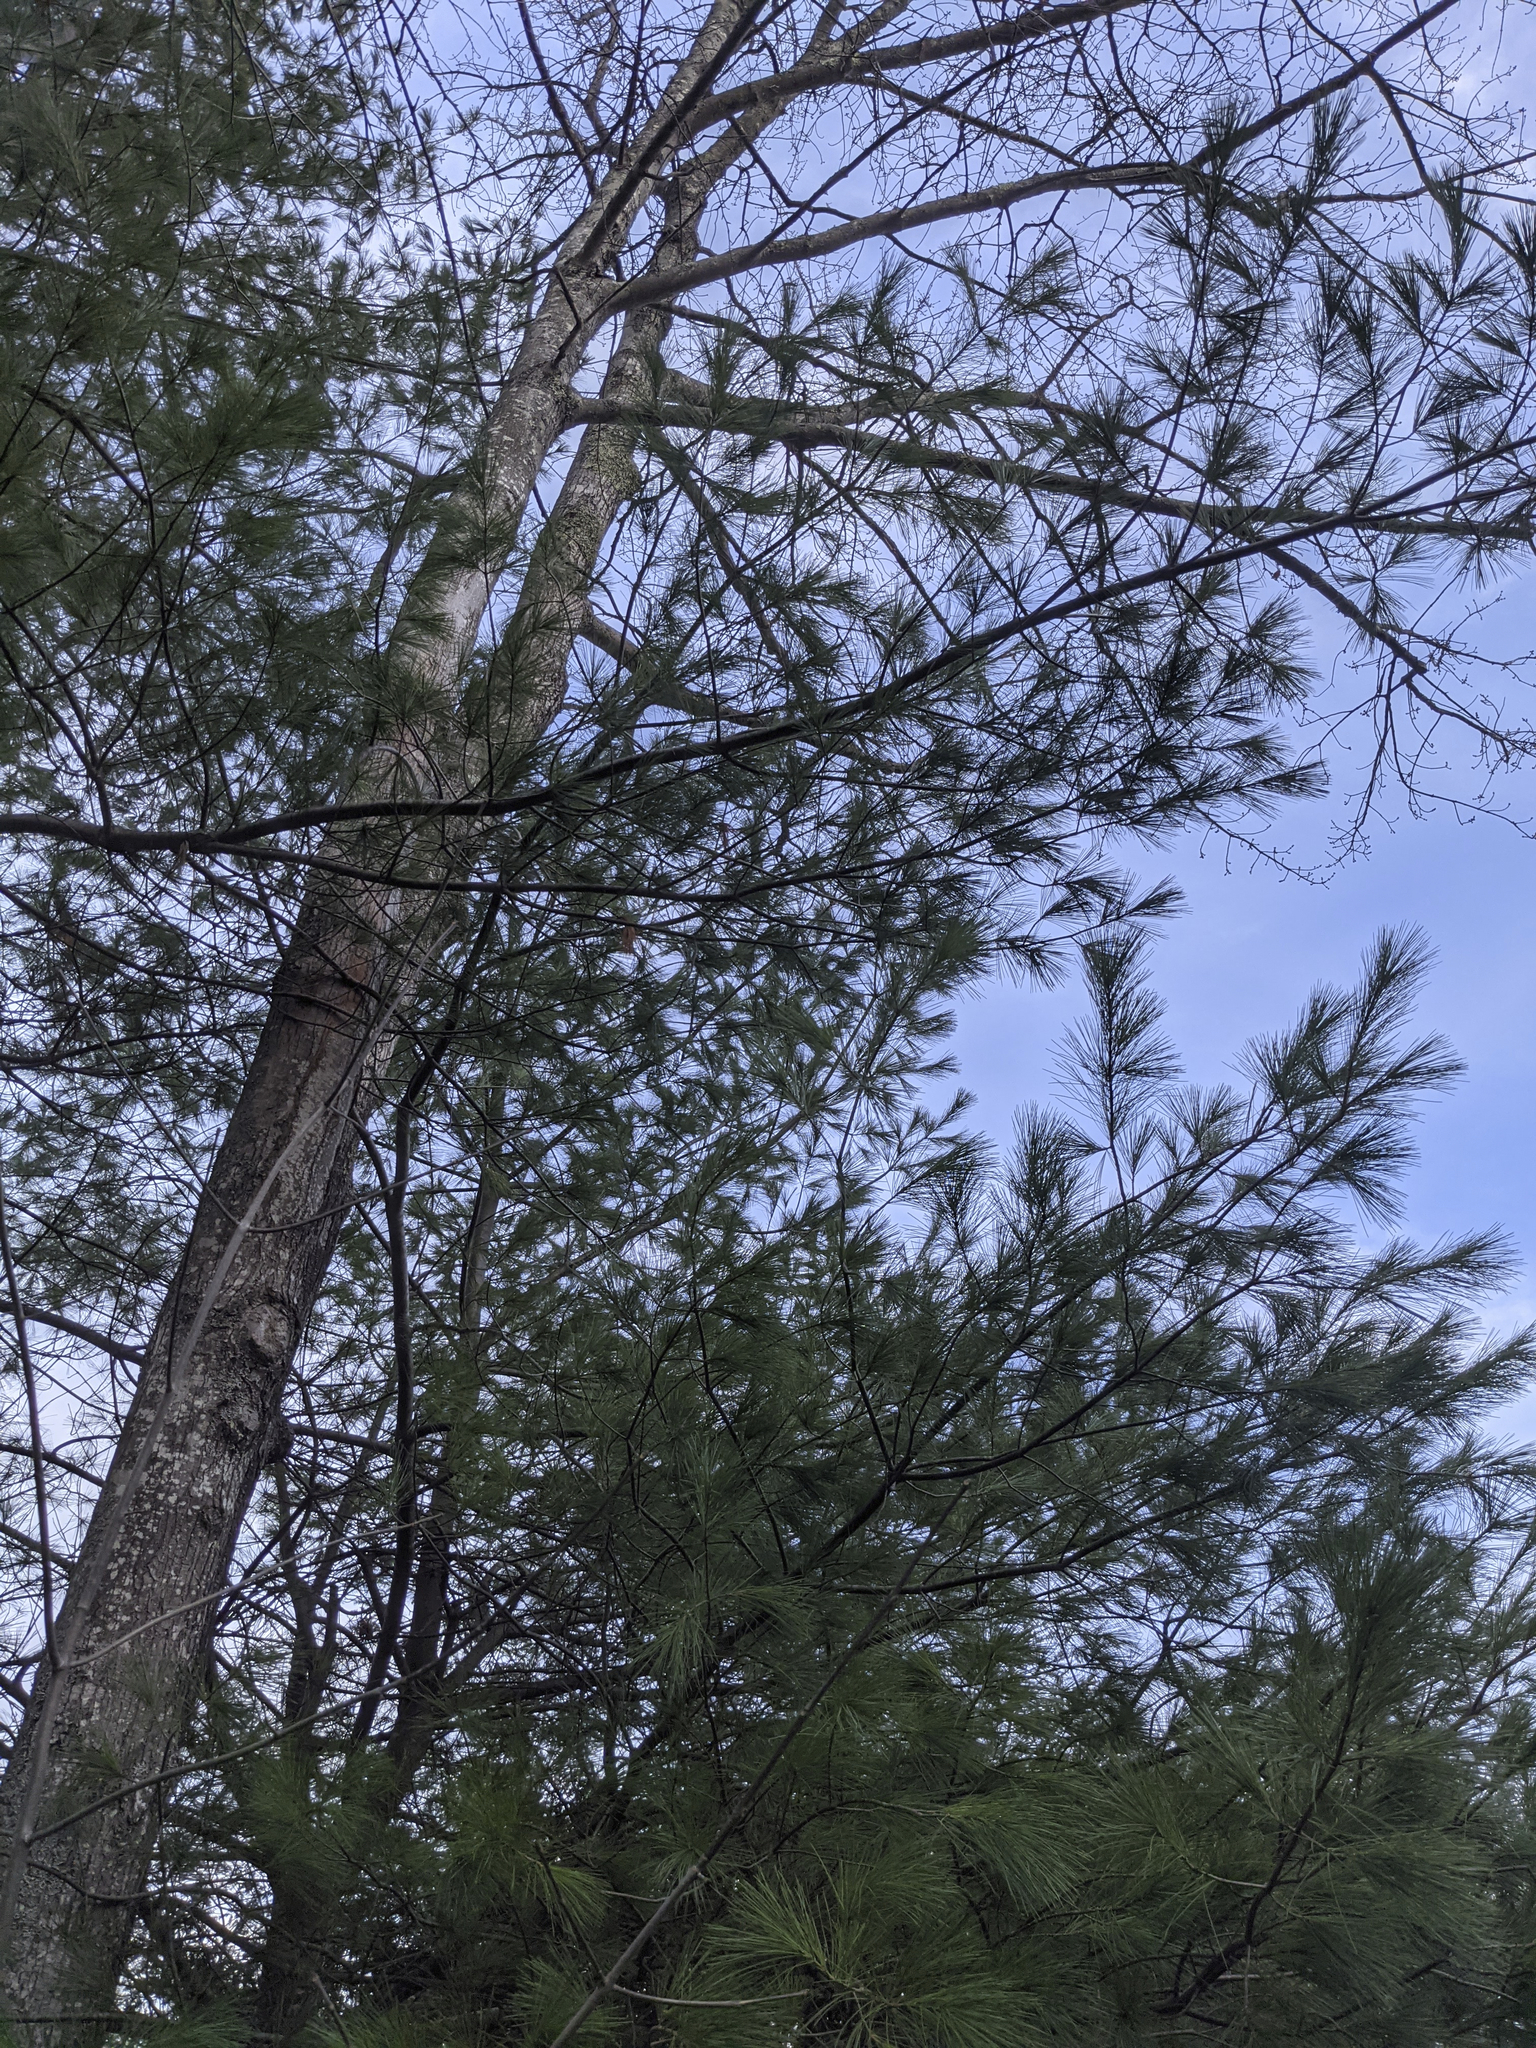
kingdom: Plantae
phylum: Tracheophyta
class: Pinopsida
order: Pinales
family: Pinaceae
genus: Pinus
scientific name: Pinus strobus
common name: Weymouth pine
